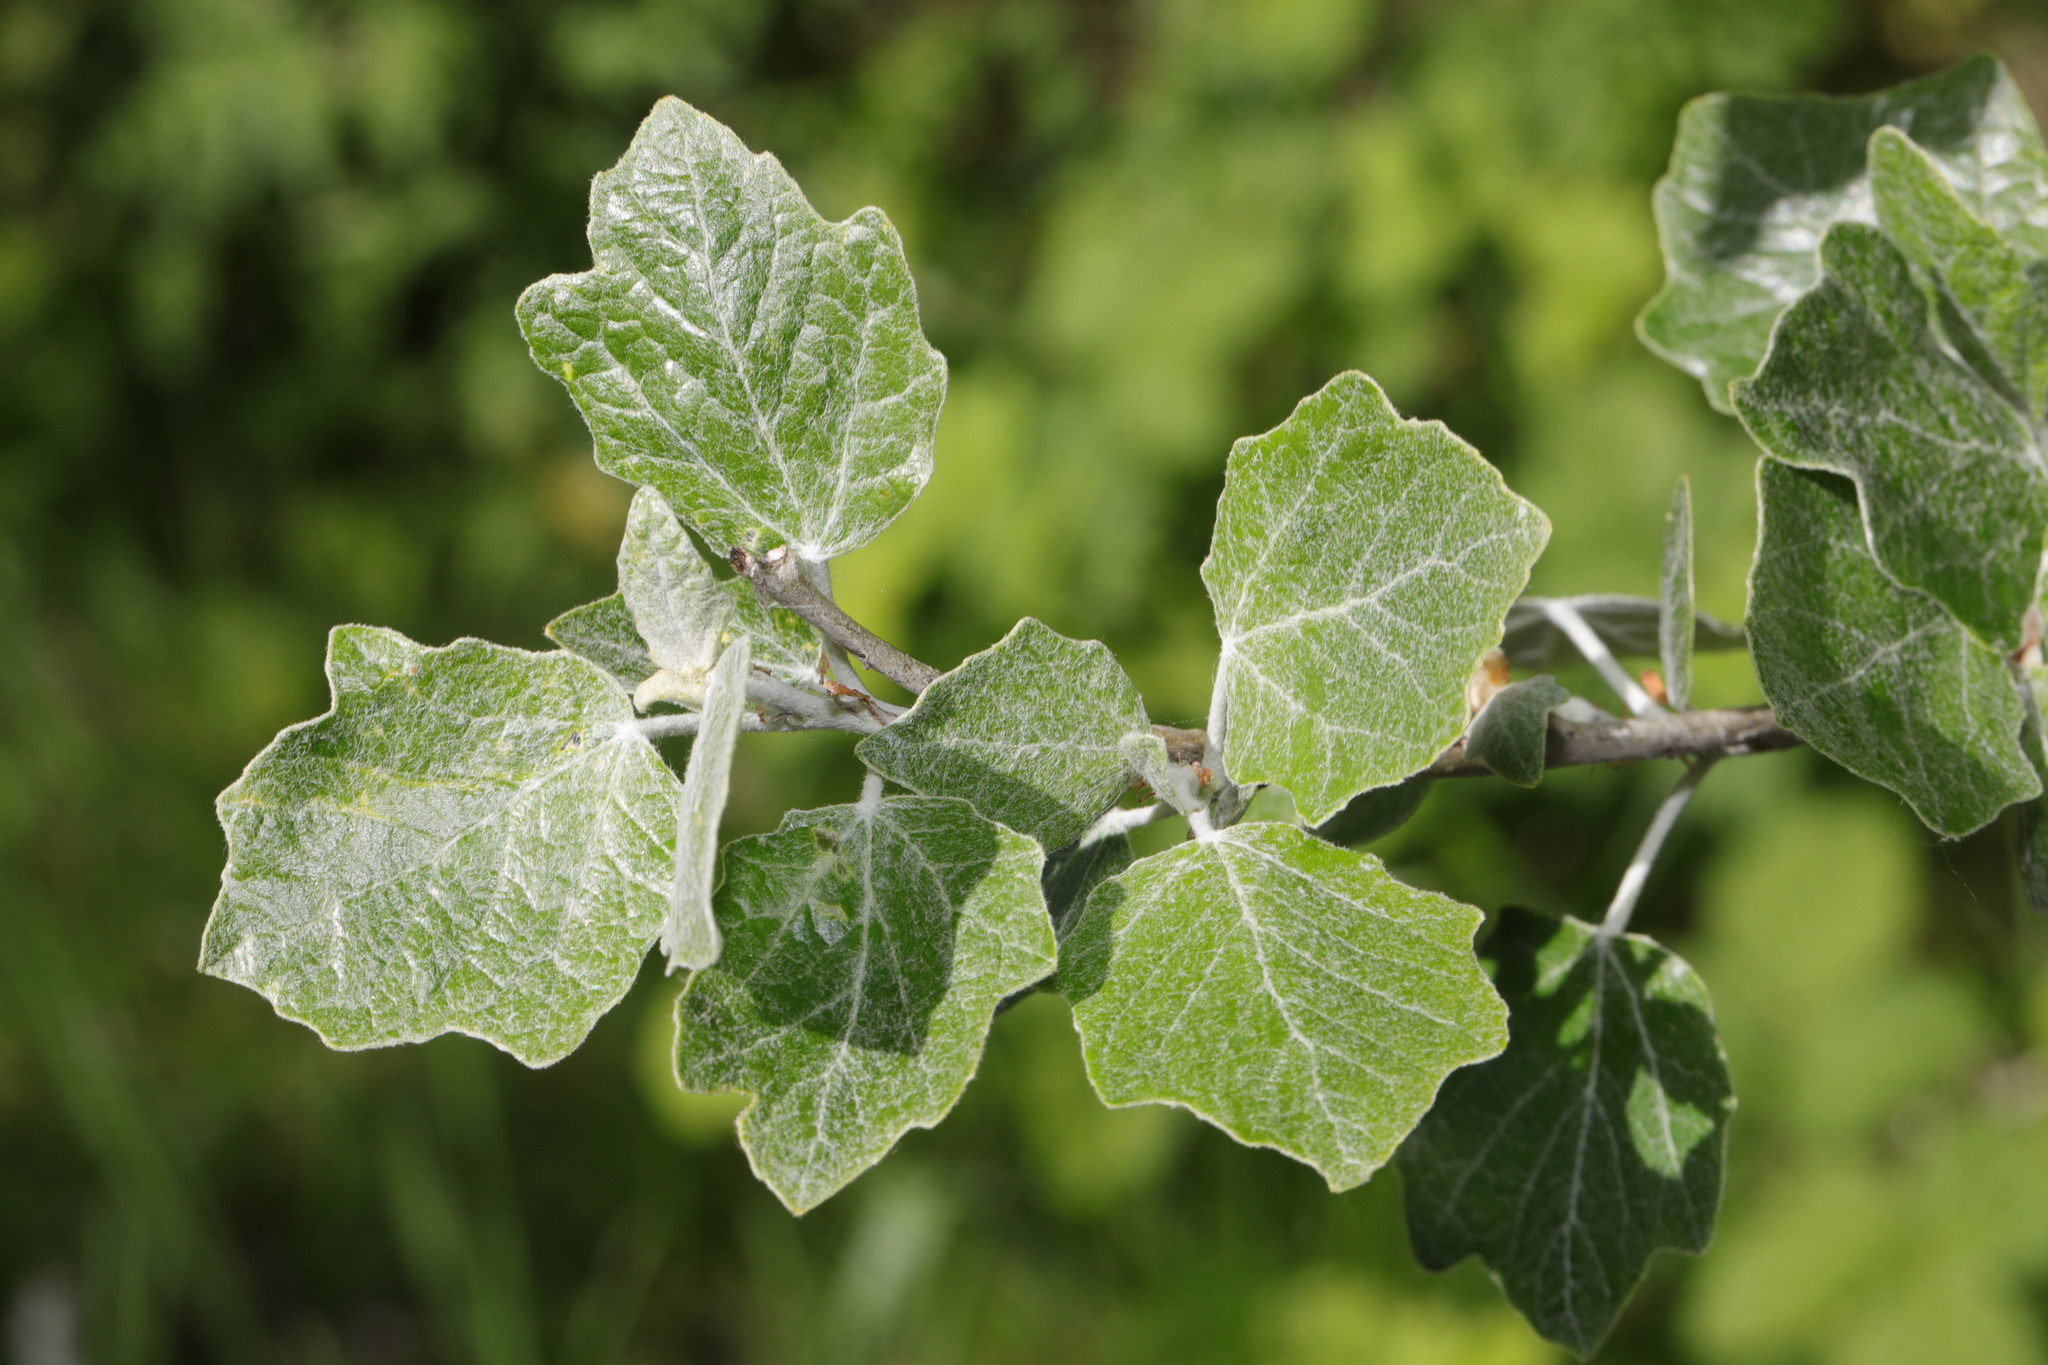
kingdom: Plantae
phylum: Tracheophyta
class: Magnoliopsida
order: Malpighiales
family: Salicaceae
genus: Populus
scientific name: Populus alba
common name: White poplar
